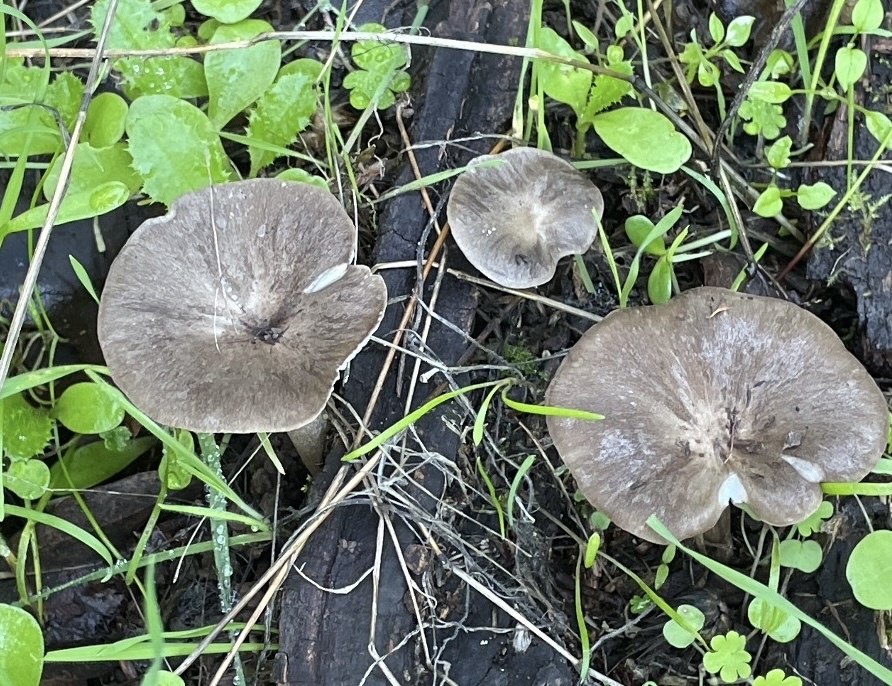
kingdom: Fungi
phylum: Basidiomycota
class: Agaricomycetes
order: Agaricales
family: Marasmiaceae
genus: Gerronema
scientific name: Gerronema atrialbum
